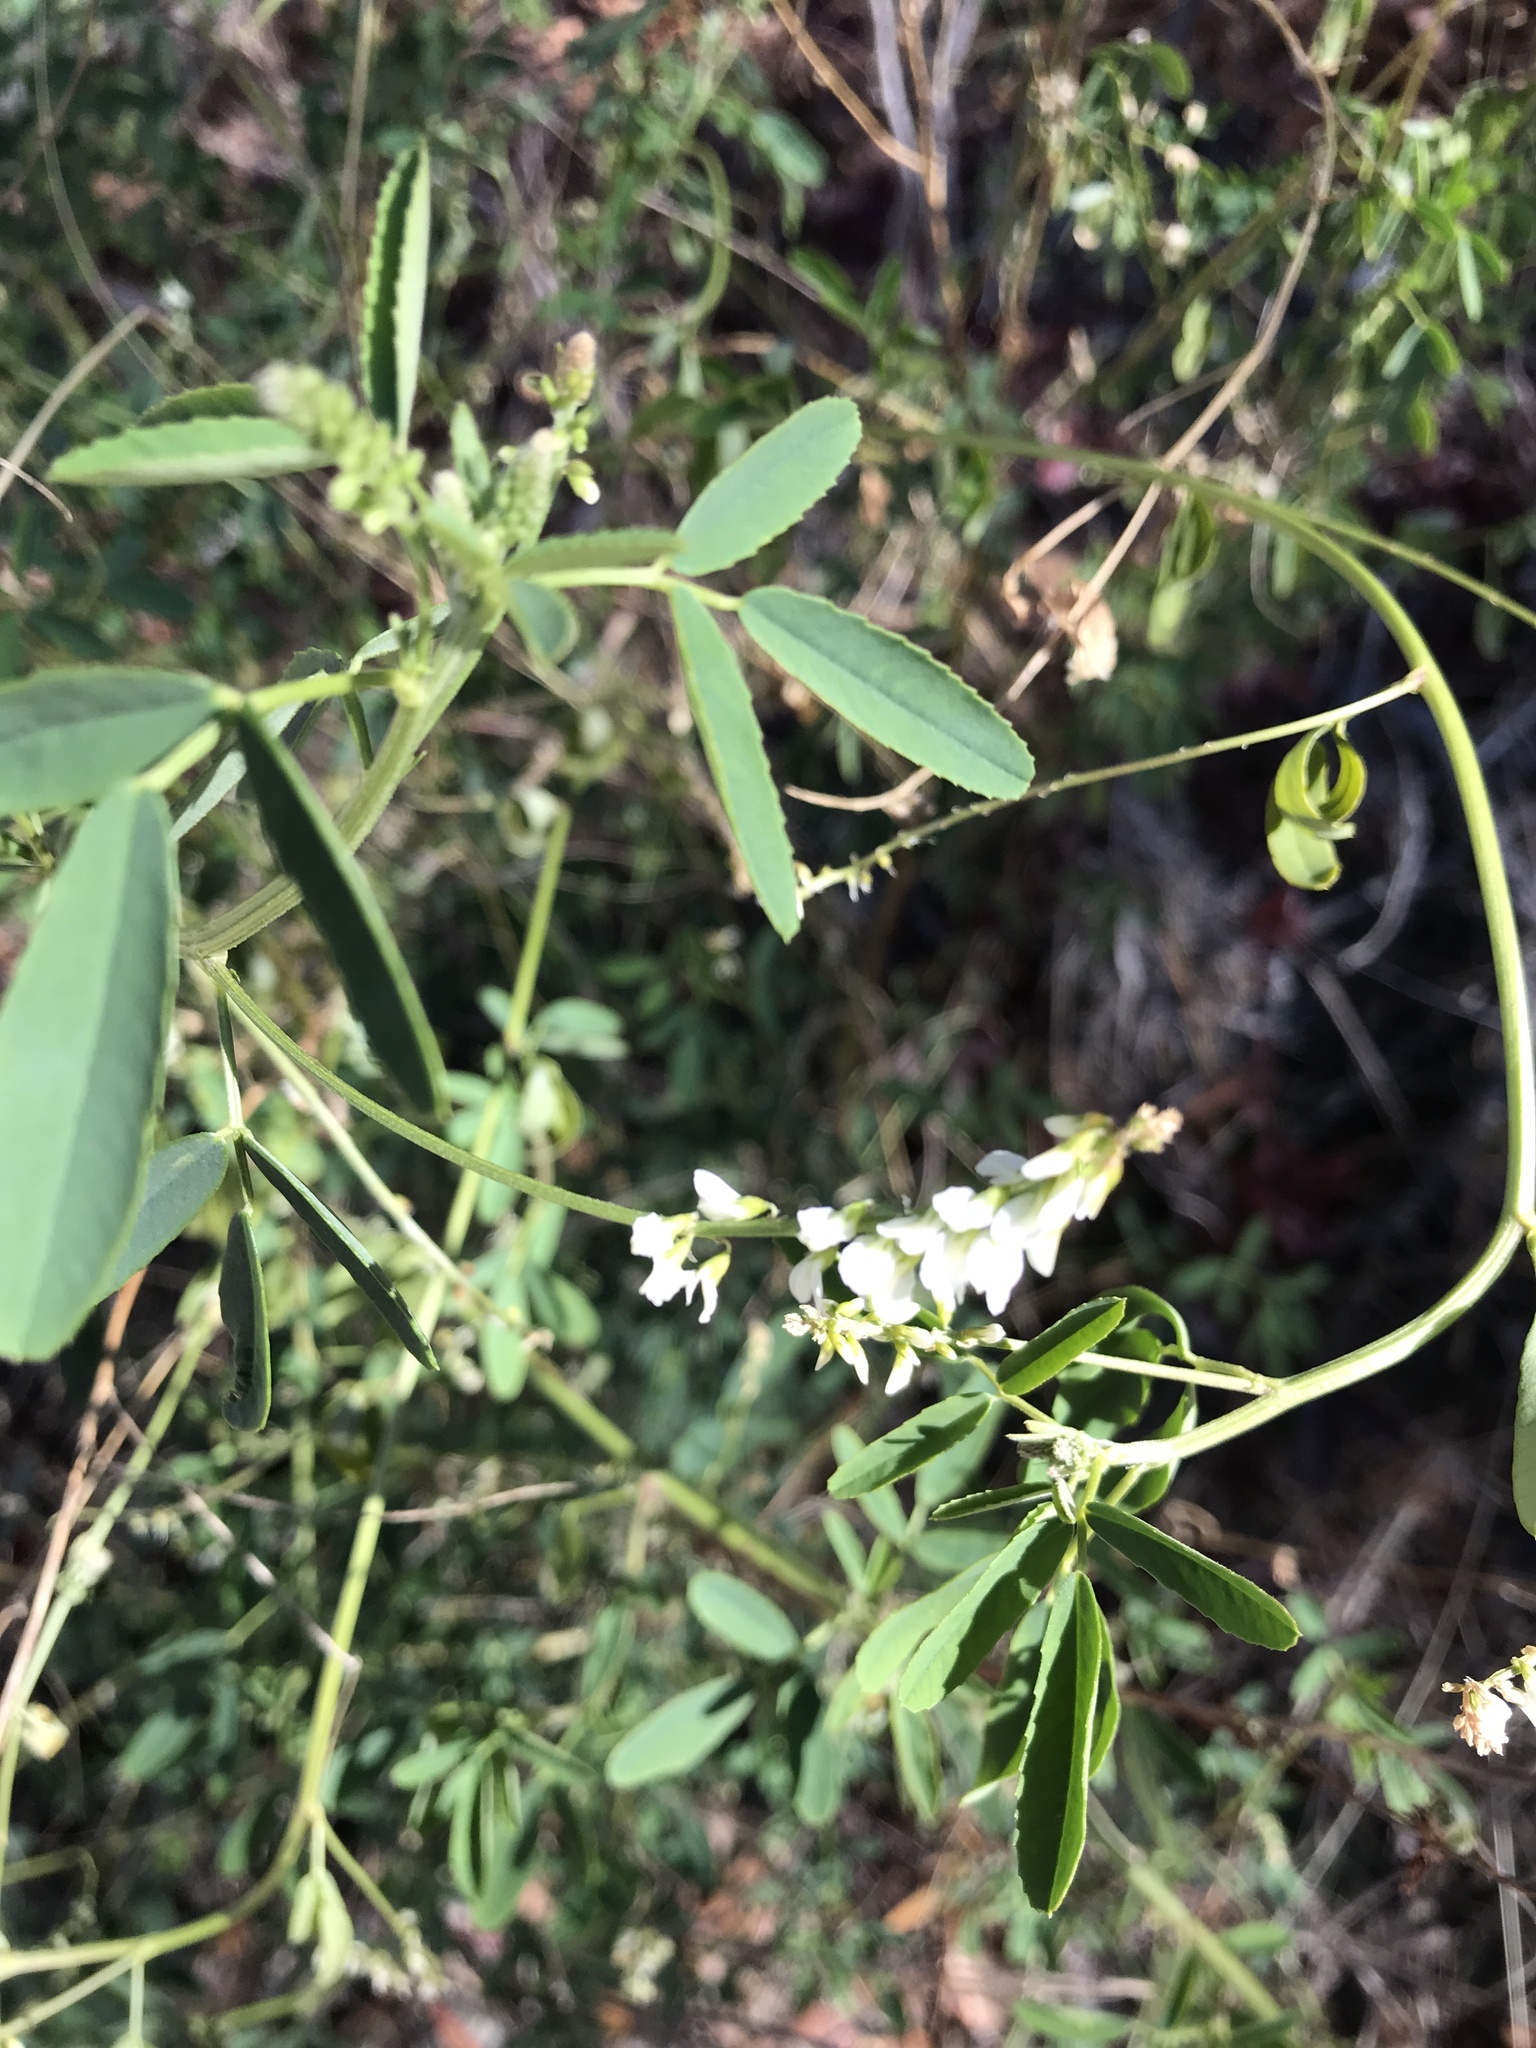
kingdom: Plantae
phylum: Tracheophyta
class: Magnoliopsida
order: Fabales
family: Fabaceae
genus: Melilotus
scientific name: Melilotus albus
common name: White melilot
